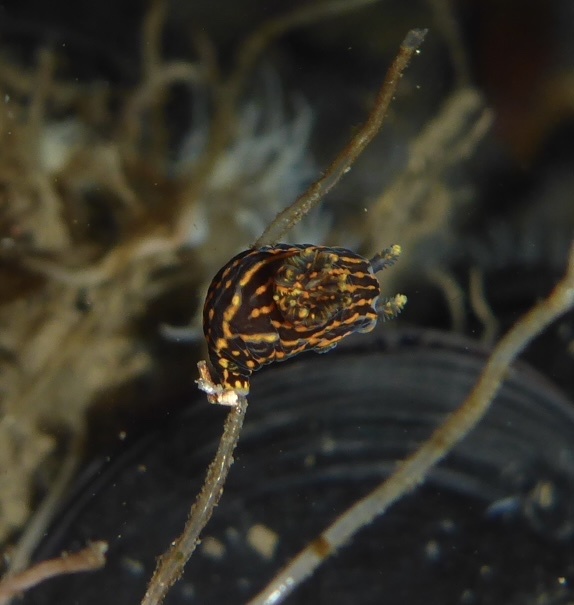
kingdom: Animalia
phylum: Mollusca
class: Gastropoda
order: Nudibranchia
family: Polyceridae
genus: Polycera
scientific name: Polycera atra
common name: Orange-spike polycera
